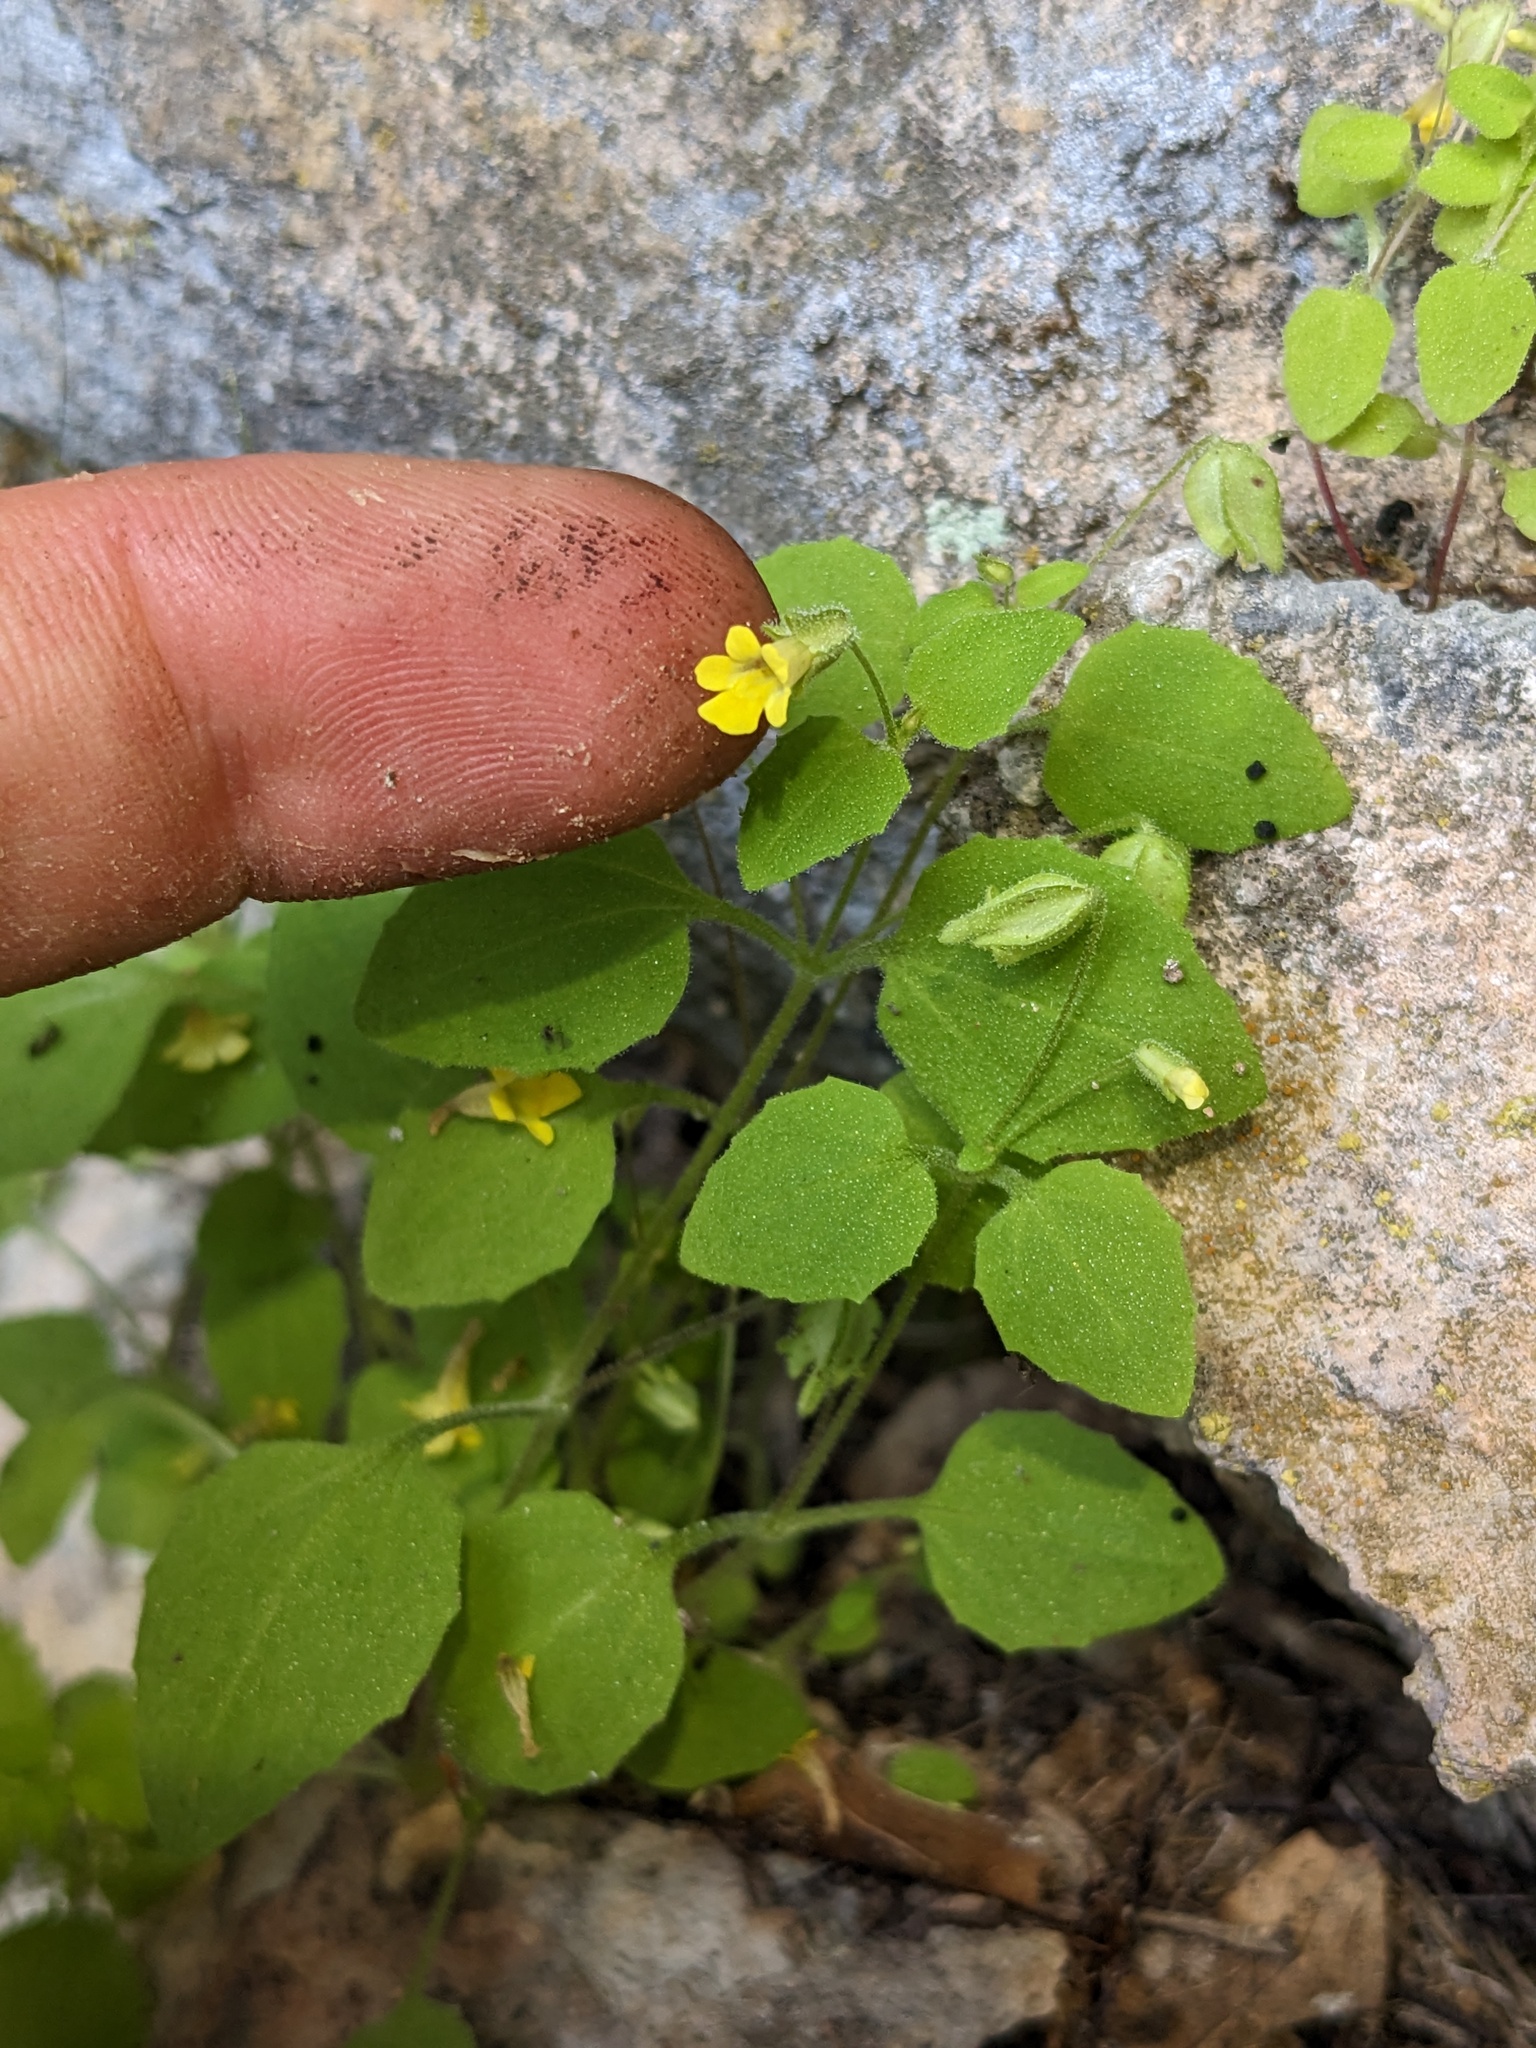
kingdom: Plantae
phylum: Tracheophyta
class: Magnoliopsida
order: Lamiales
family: Phrymaceae
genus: Erythranthe
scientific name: Erythranthe pardalis
